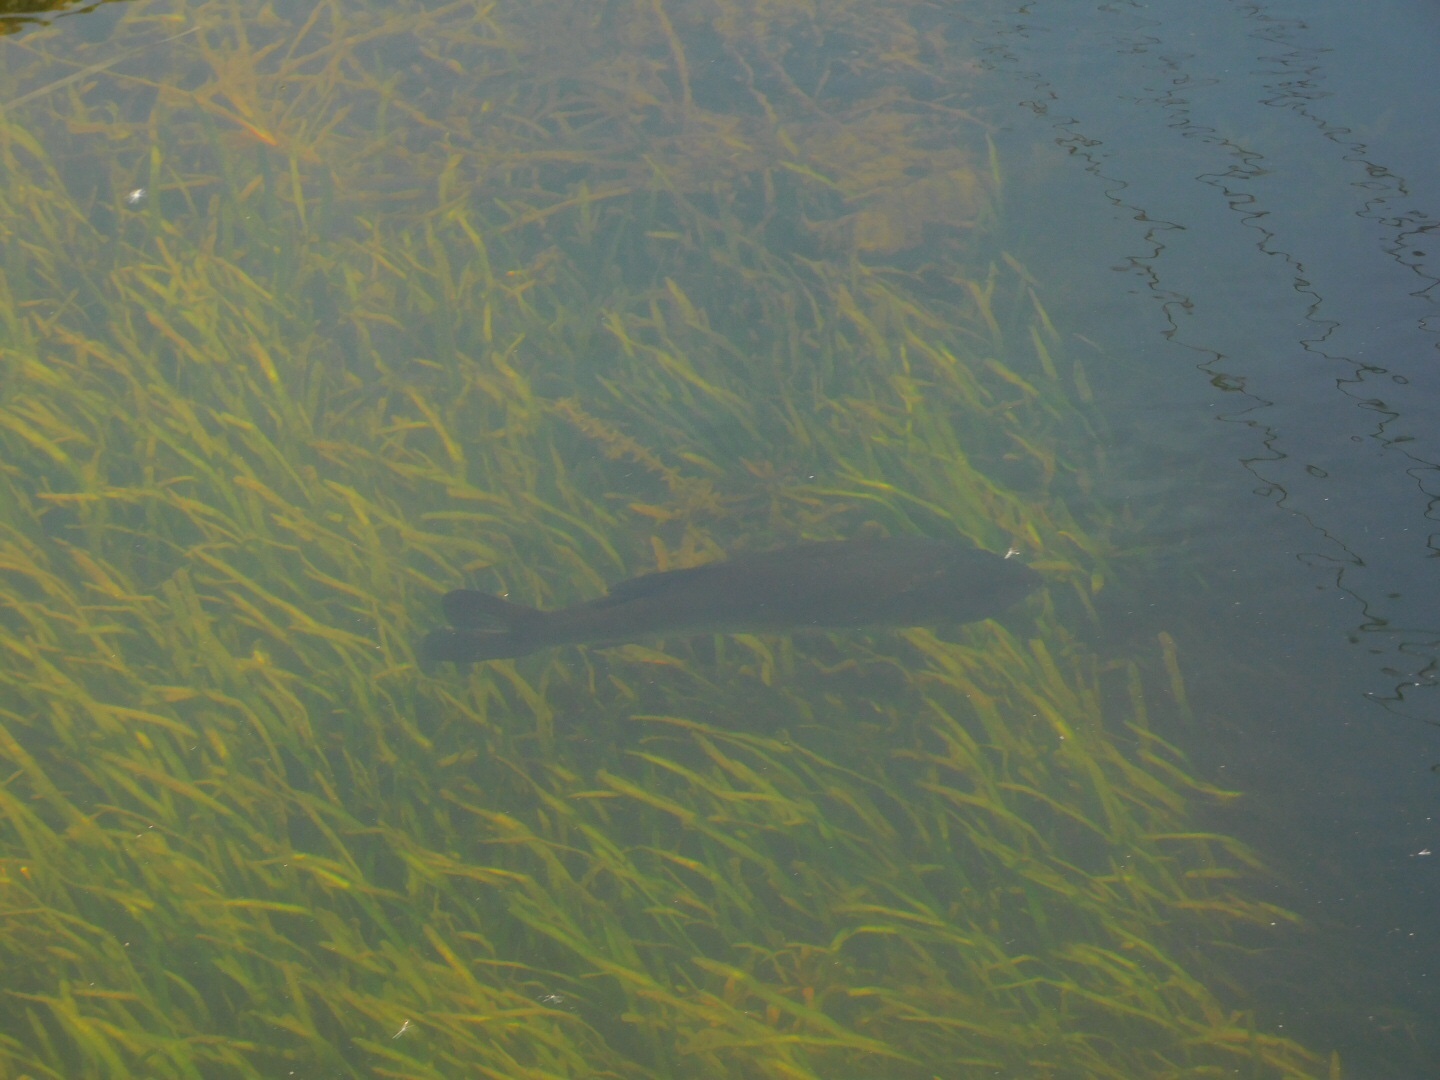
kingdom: Animalia
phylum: Chordata
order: Perciformes
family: Centrarchidae
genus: Micropterus
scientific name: Micropterus salmoides
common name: Largemouth bass
